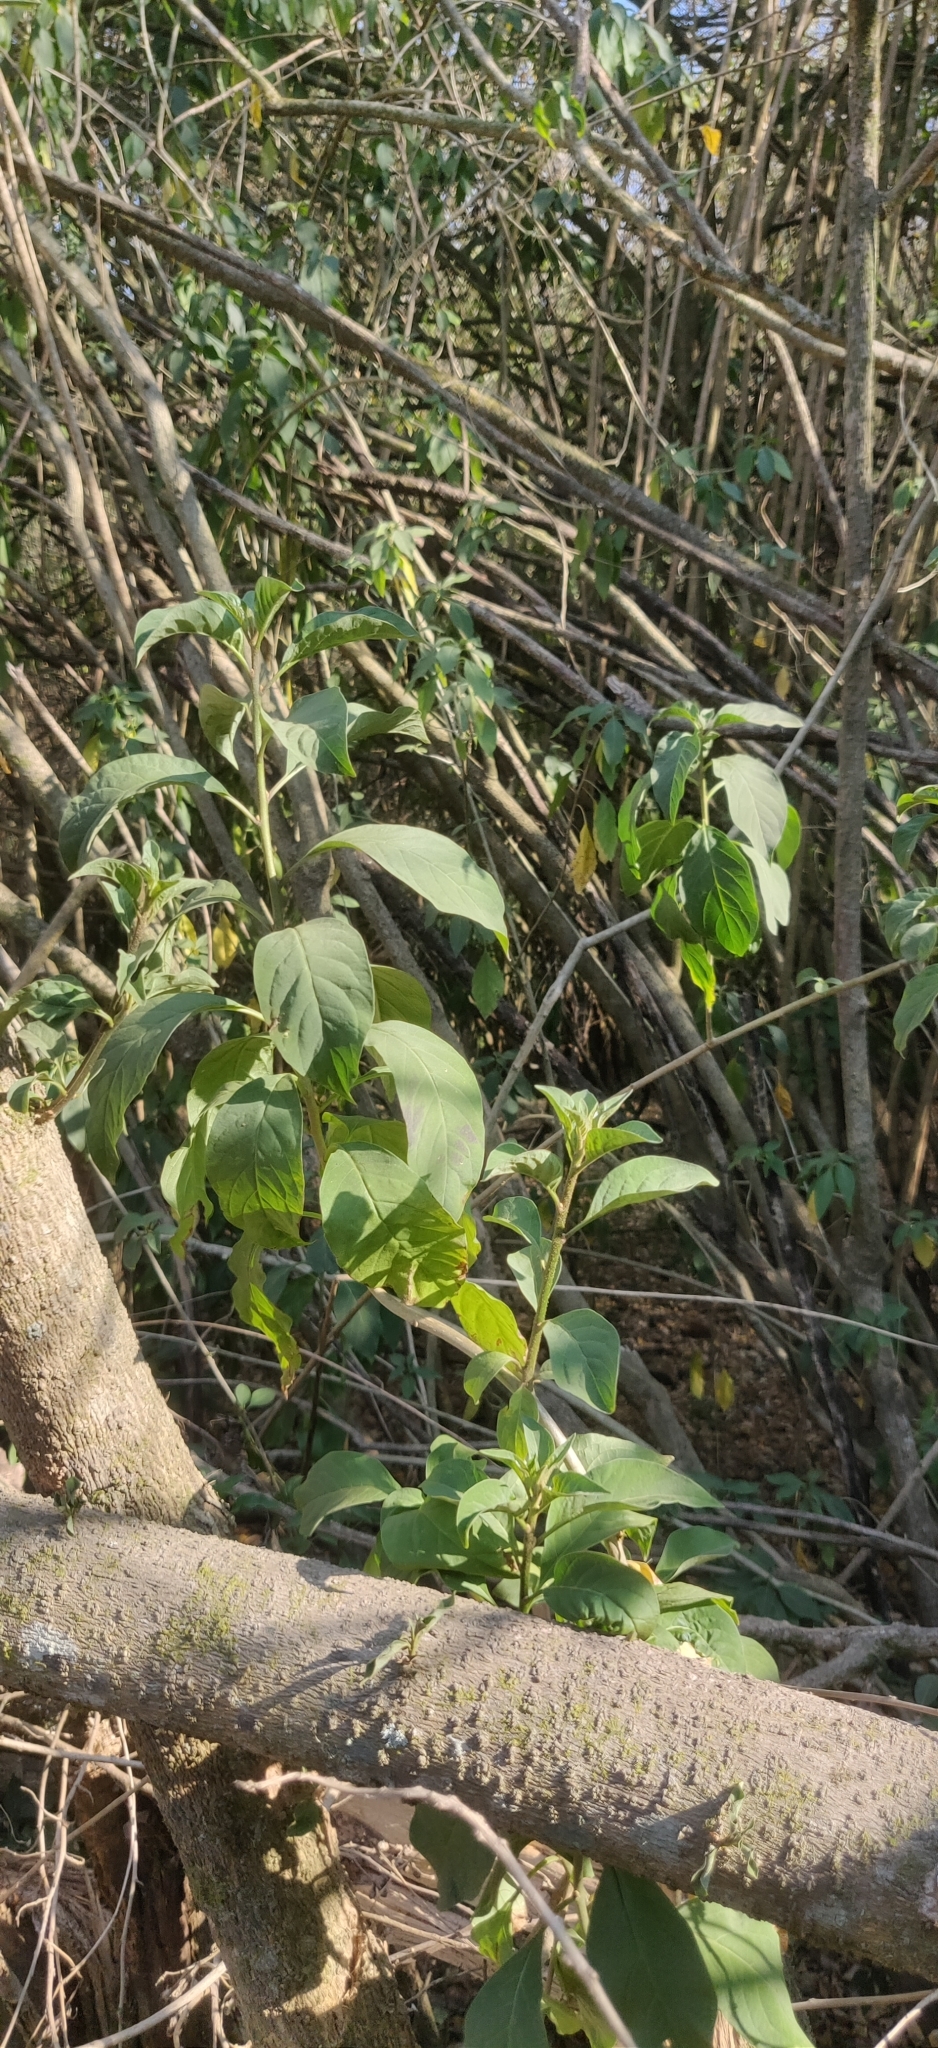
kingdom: Plantae
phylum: Tracheophyta
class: Magnoliopsida
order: Solanales
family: Solanaceae
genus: Cestrum
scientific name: Cestrum aurantiacum
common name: Orange cestrum
